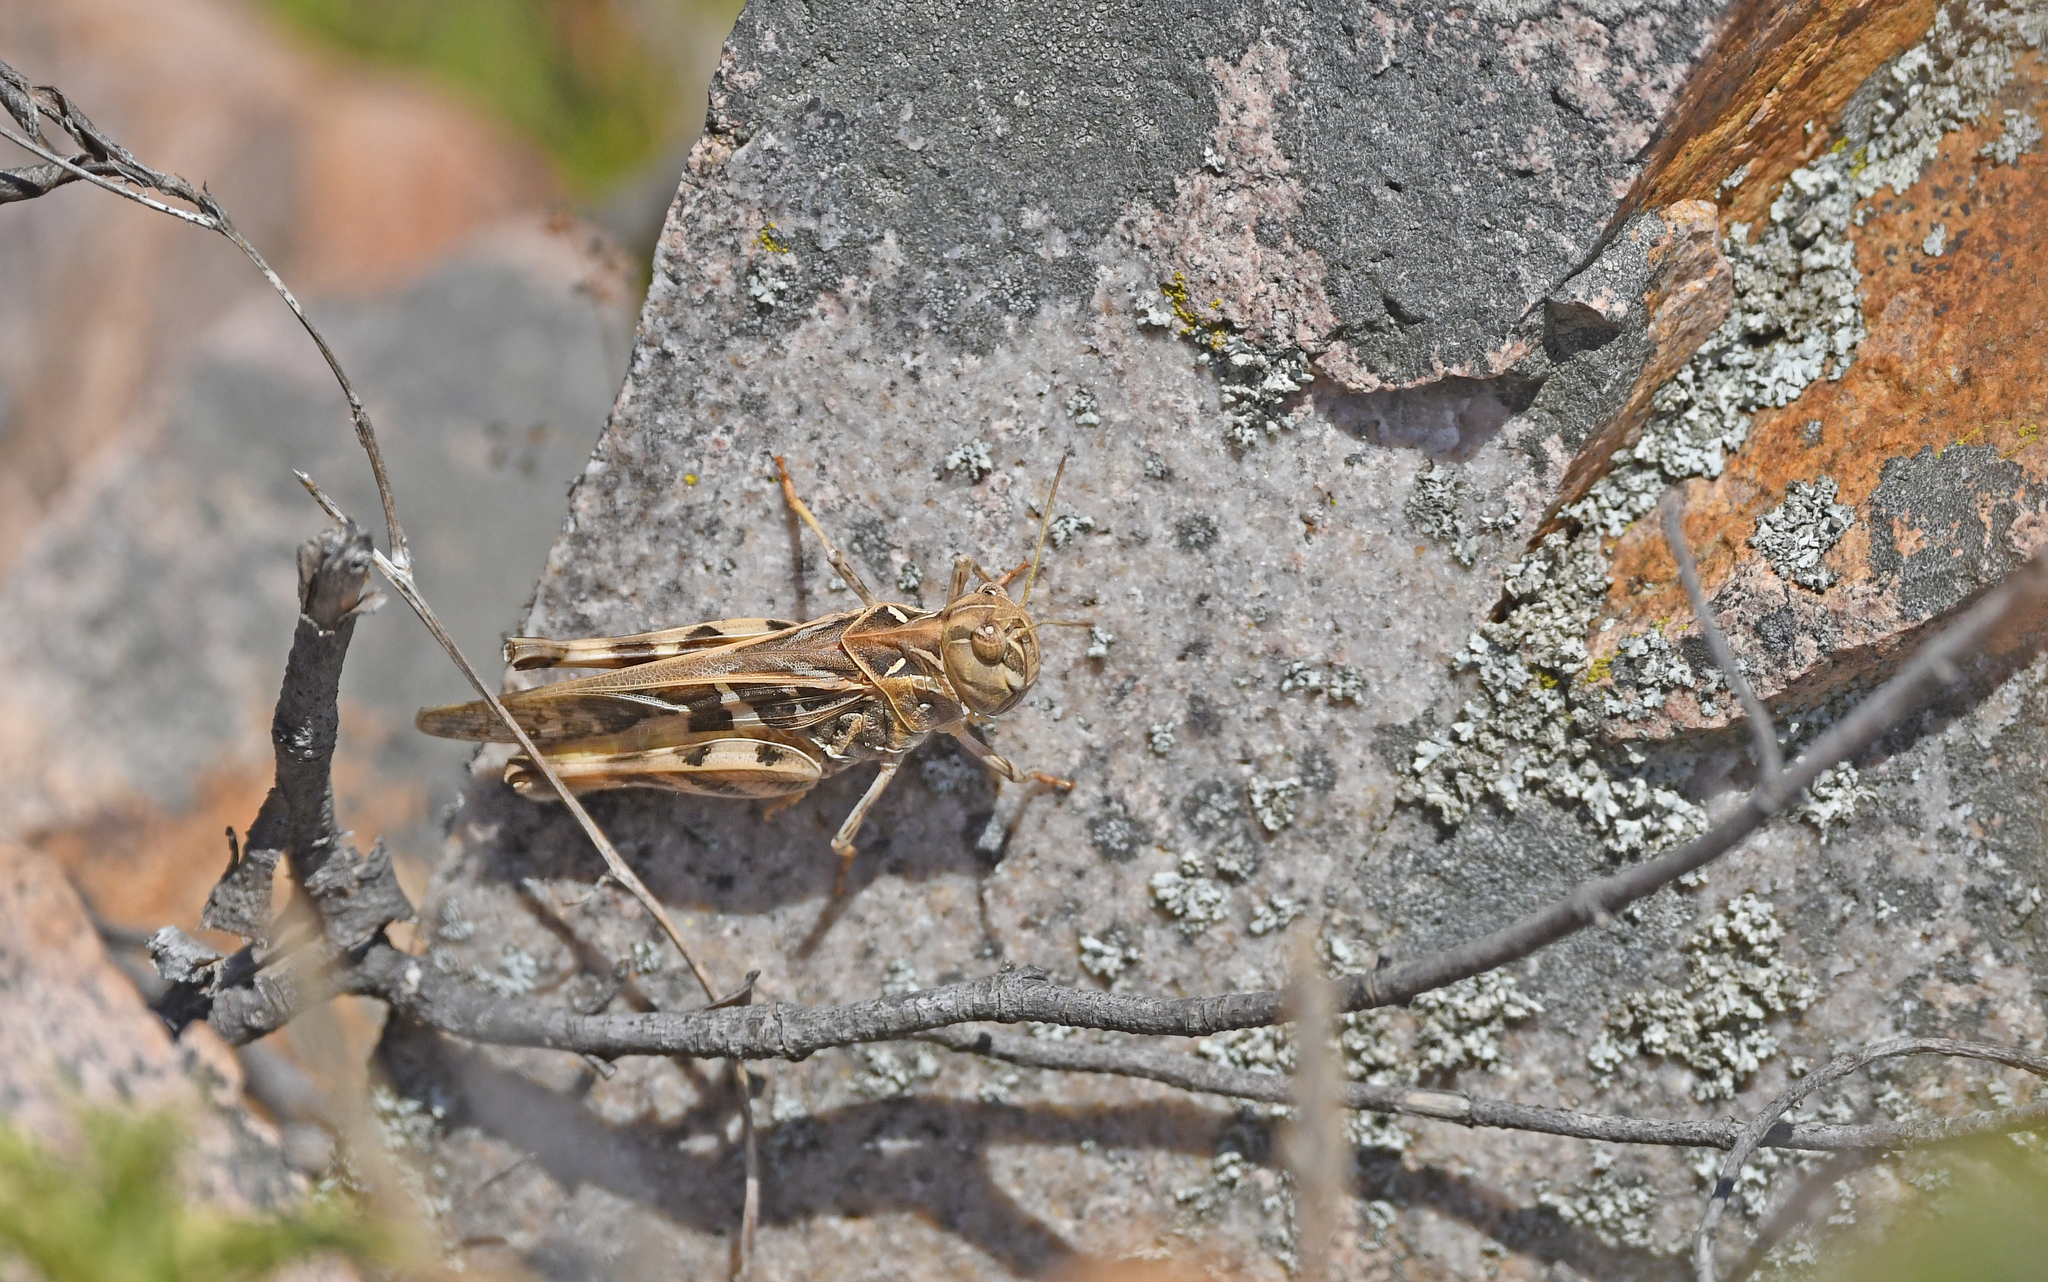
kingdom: Animalia
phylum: Arthropoda
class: Insecta
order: Orthoptera
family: Acrididae
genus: Oedaleus
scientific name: Oedaleus decorus
